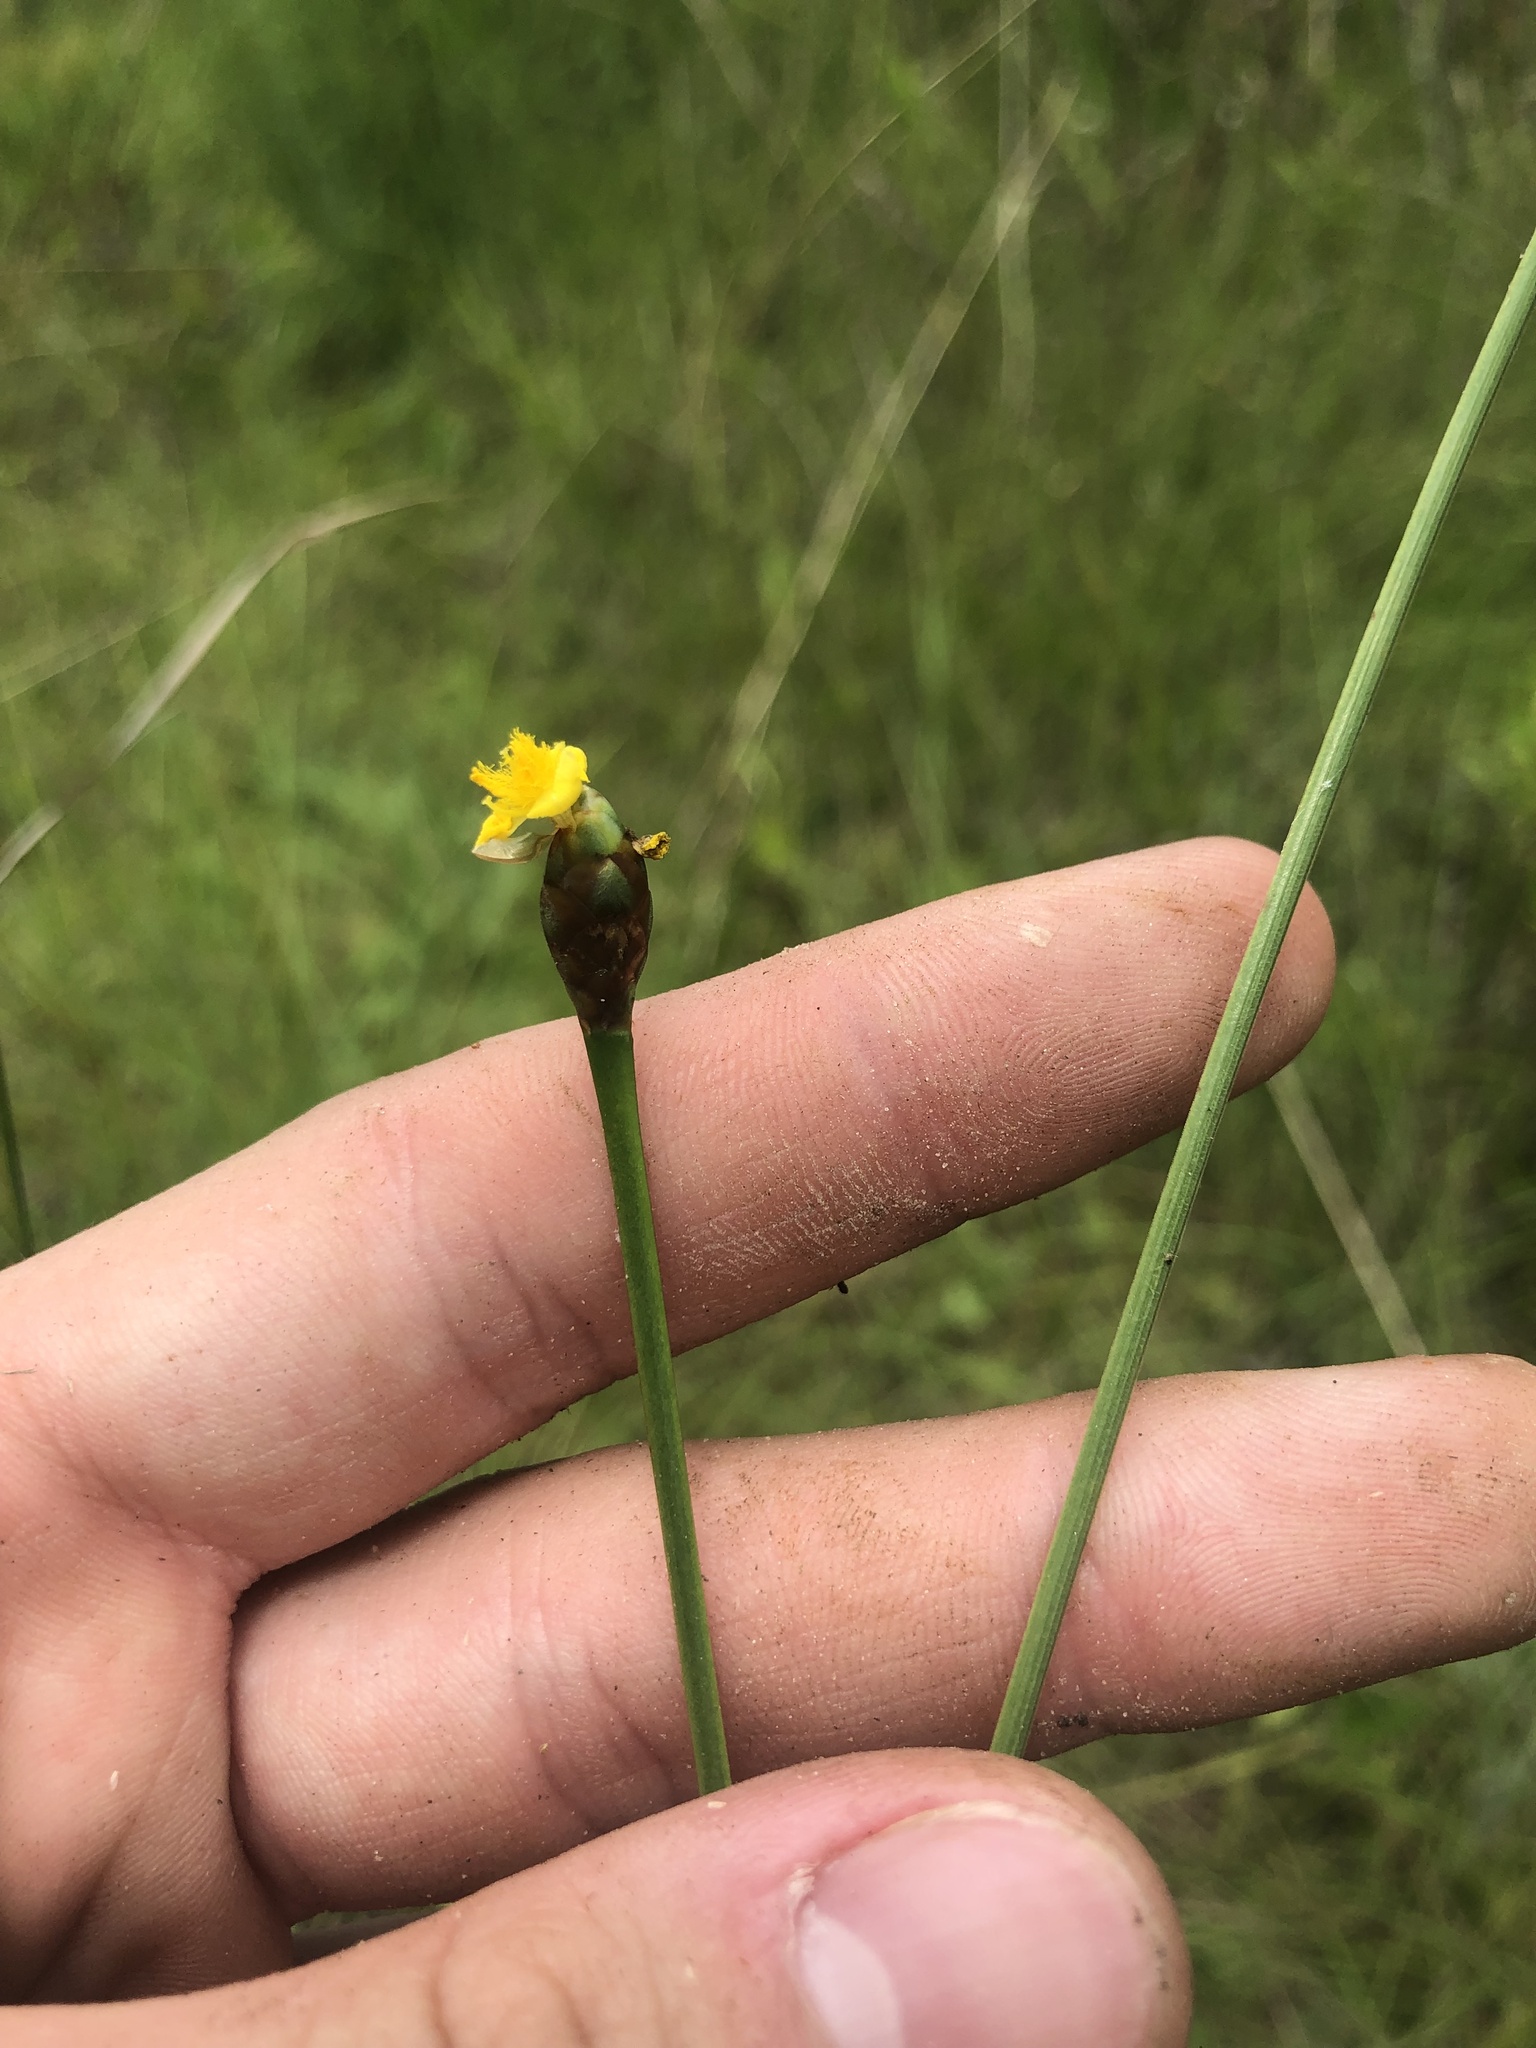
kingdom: Plantae
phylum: Tracheophyta
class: Liliopsida
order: Poales
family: Xyridaceae
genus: Xyris
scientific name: Xyris ambigua
